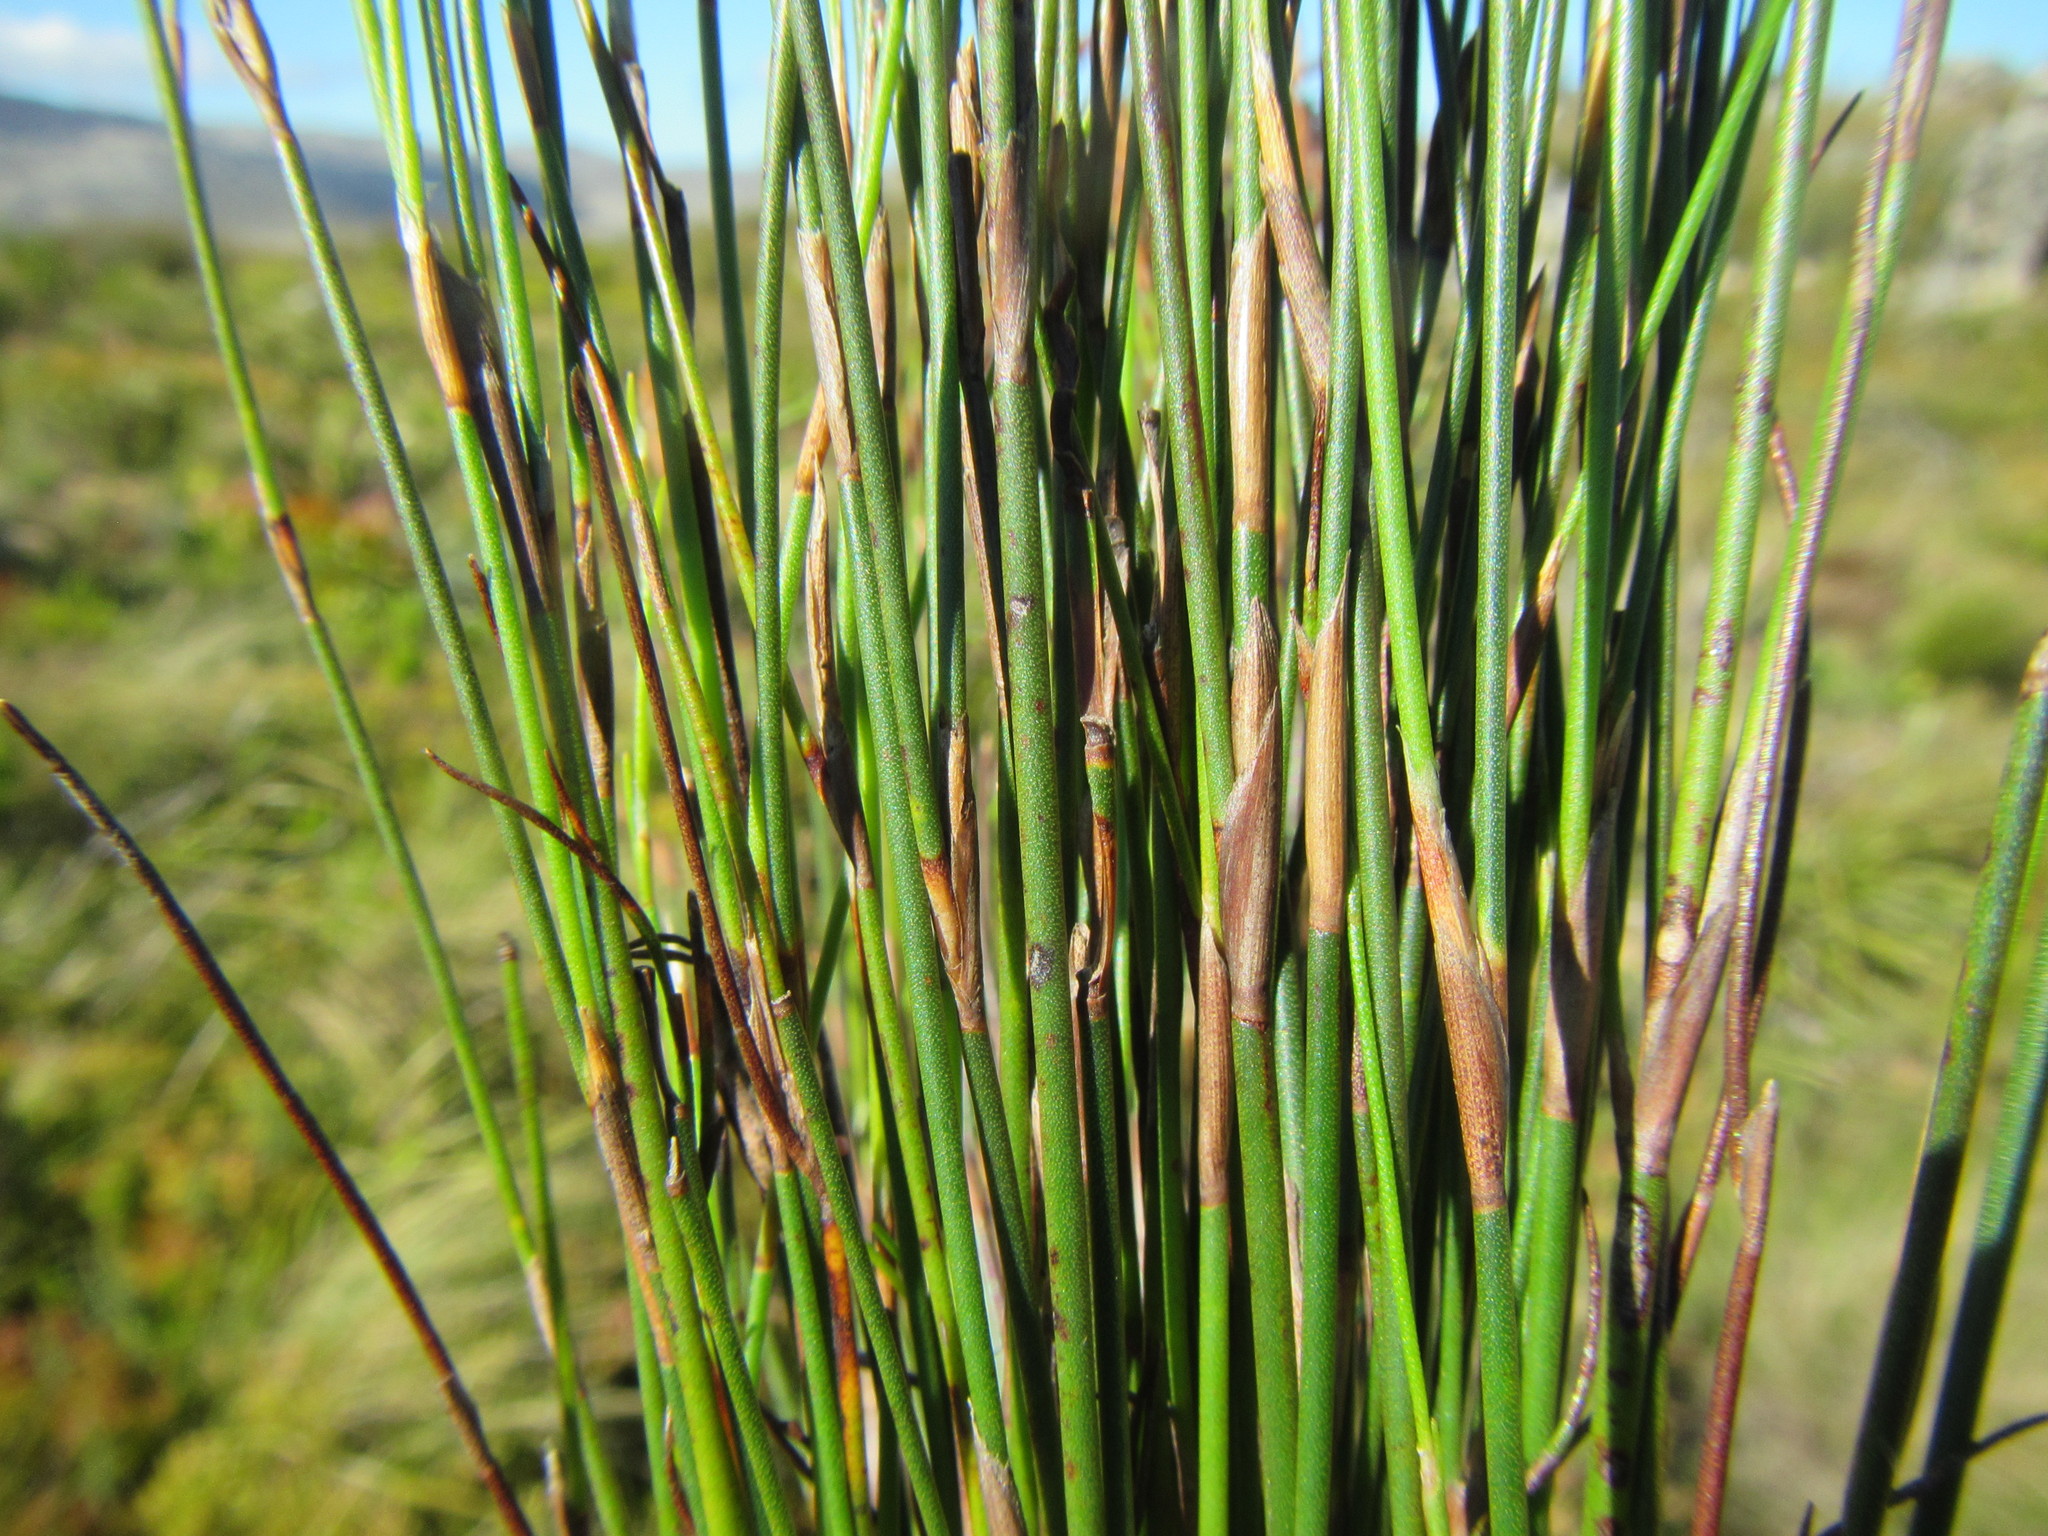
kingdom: Plantae
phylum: Tracheophyta
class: Liliopsida
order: Poales
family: Restionaceae
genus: Restio
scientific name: Restio distichus
